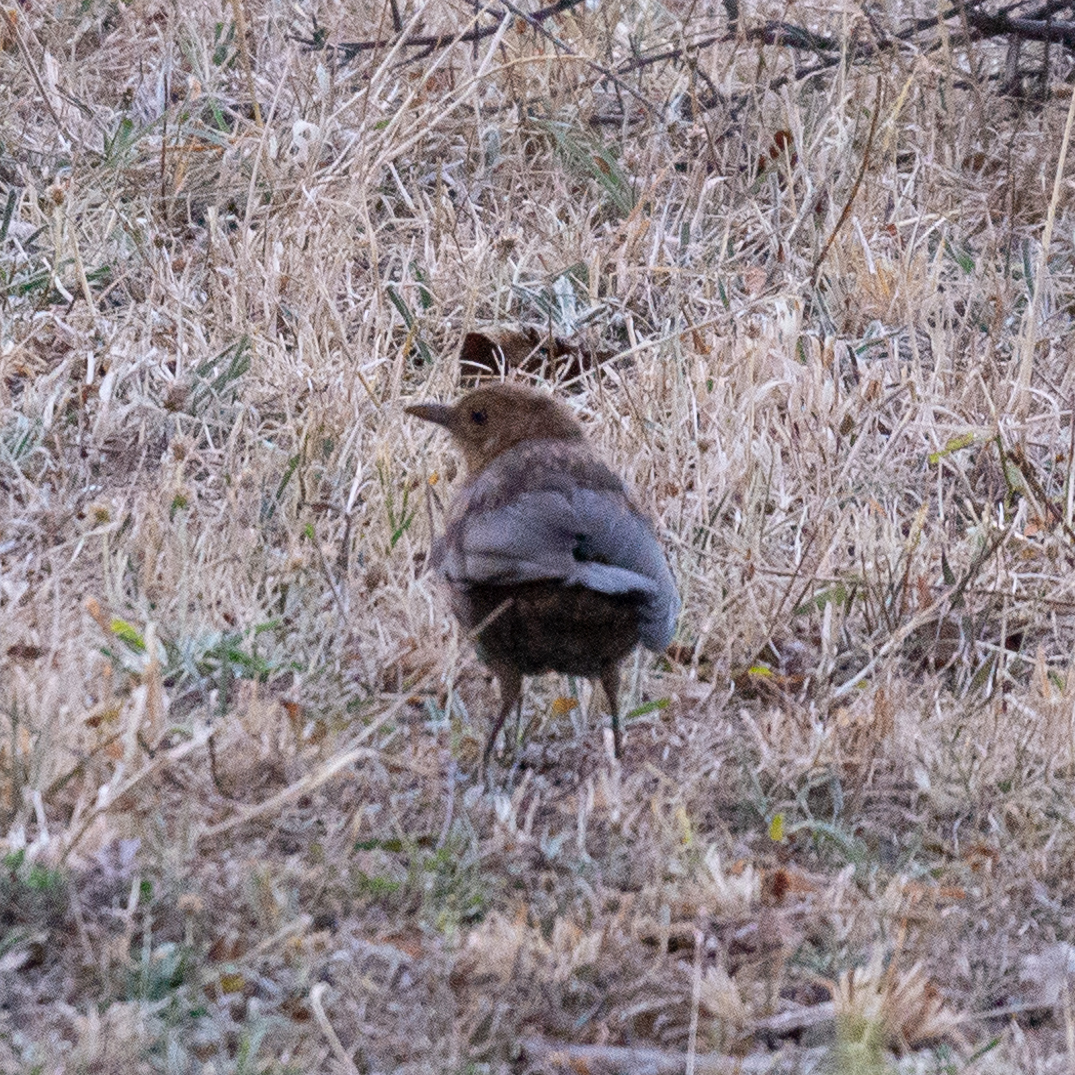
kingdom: Animalia
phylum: Chordata
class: Aves
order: Passeriformes
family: Turdidae
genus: Turdus
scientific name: Turdus merula
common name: Common blackbird
